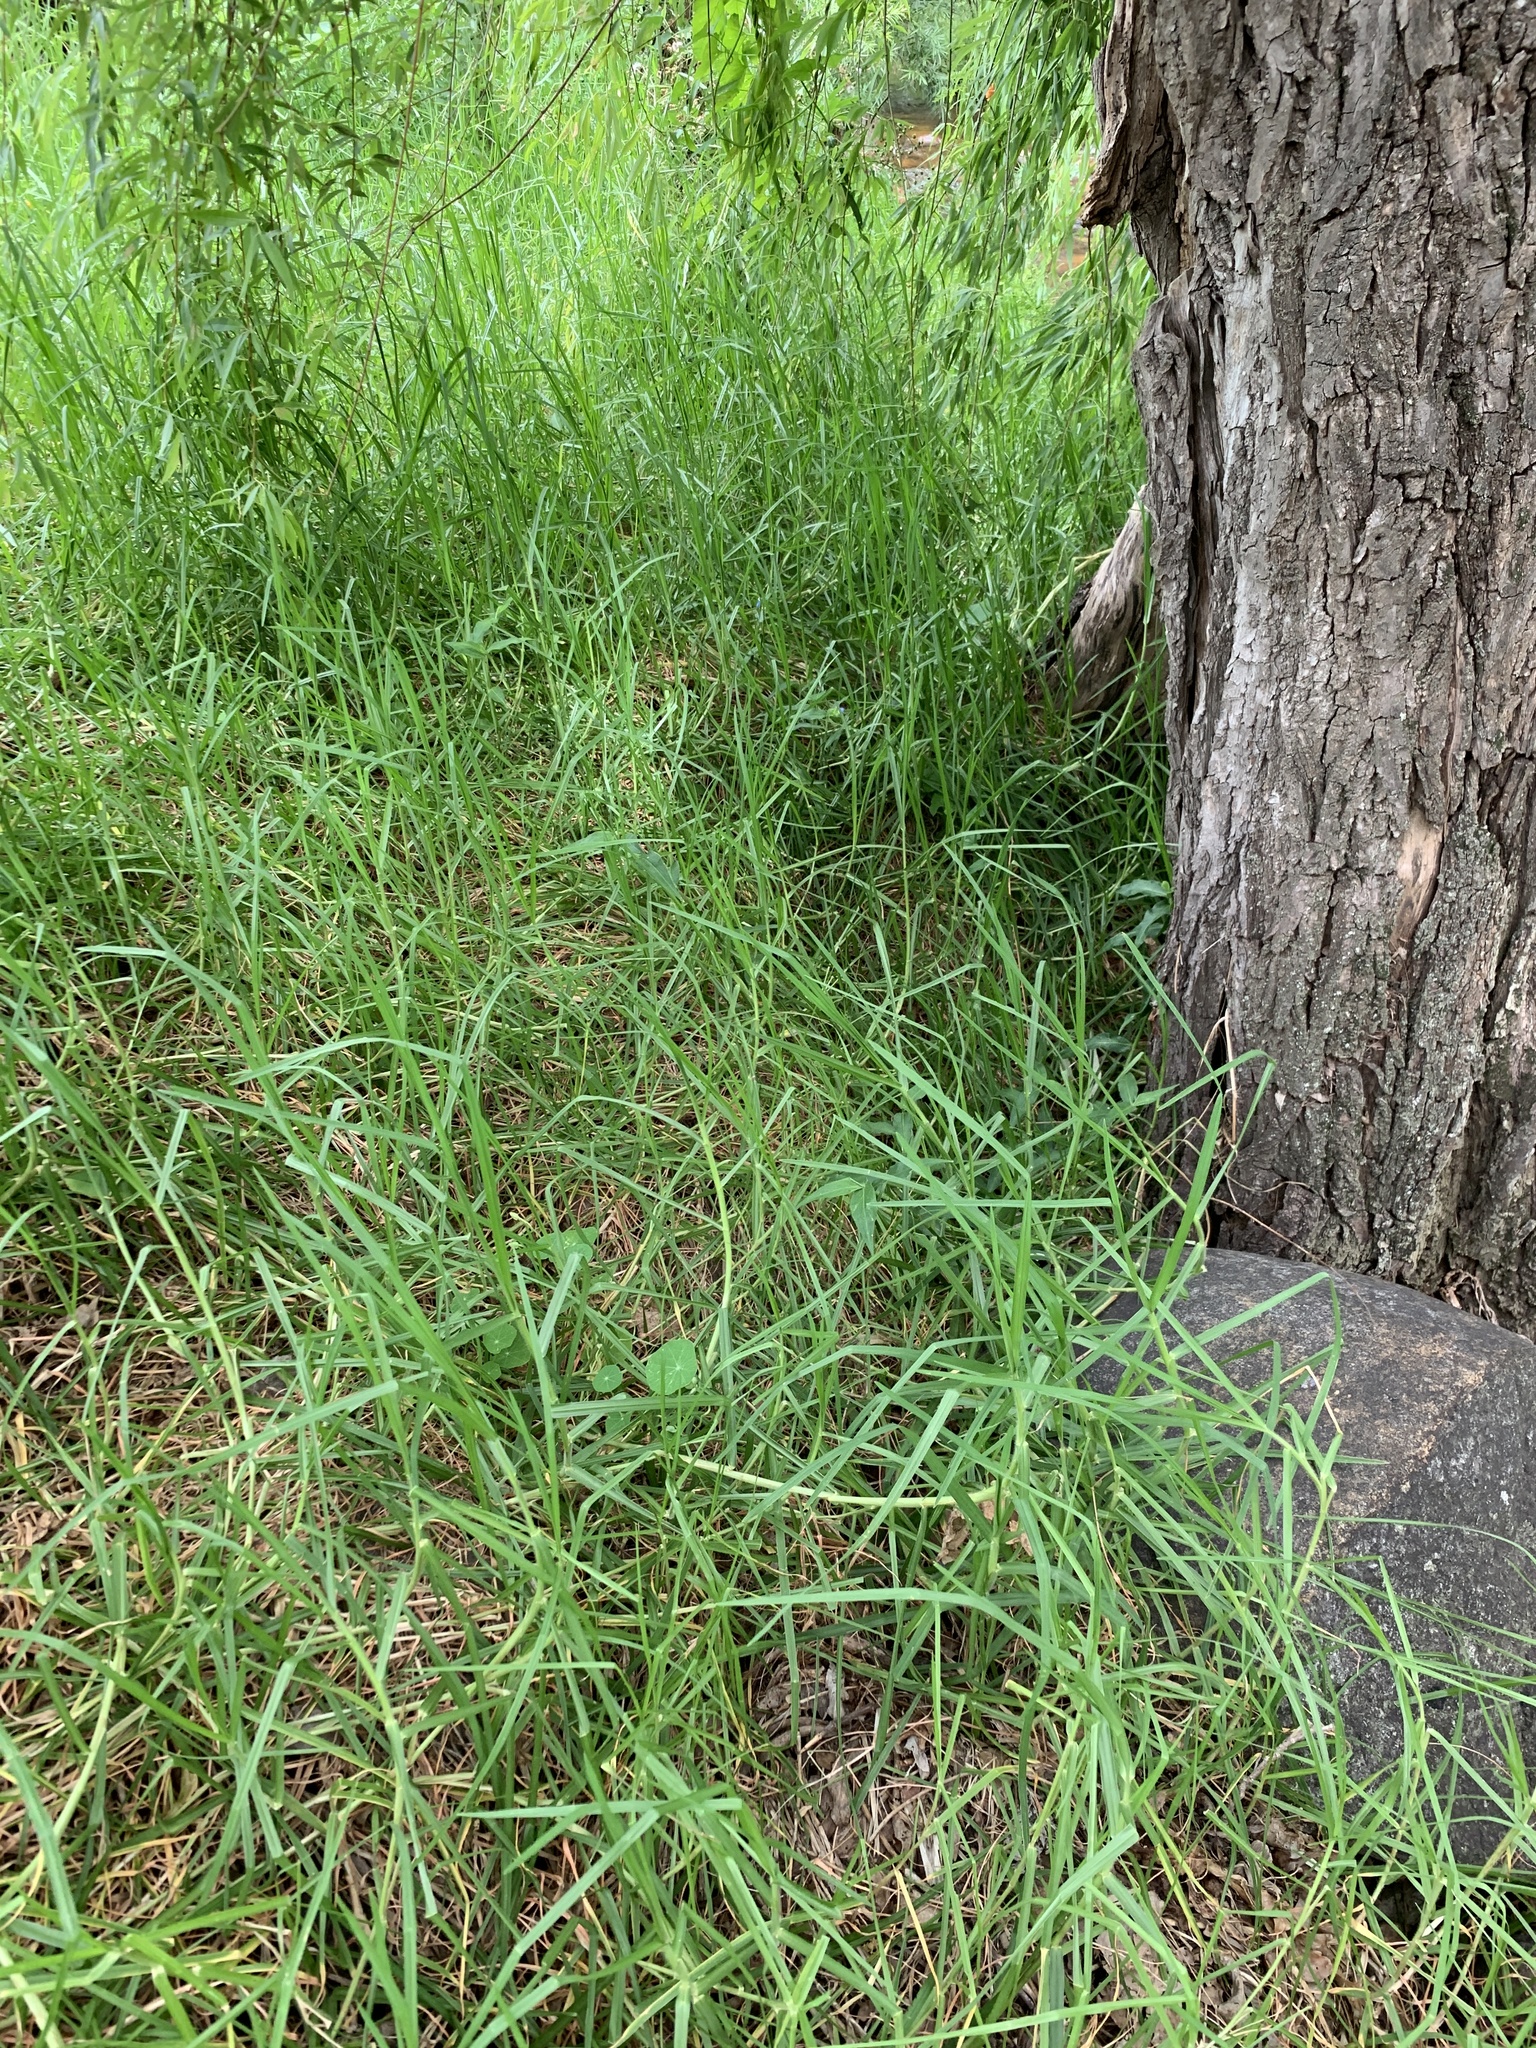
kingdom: Plantae
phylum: Tracheophyta
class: Liliopsida
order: Poales
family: Poaceae
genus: Cenchrus
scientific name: Cenchrus clandestinus
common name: Kikuyugrass
